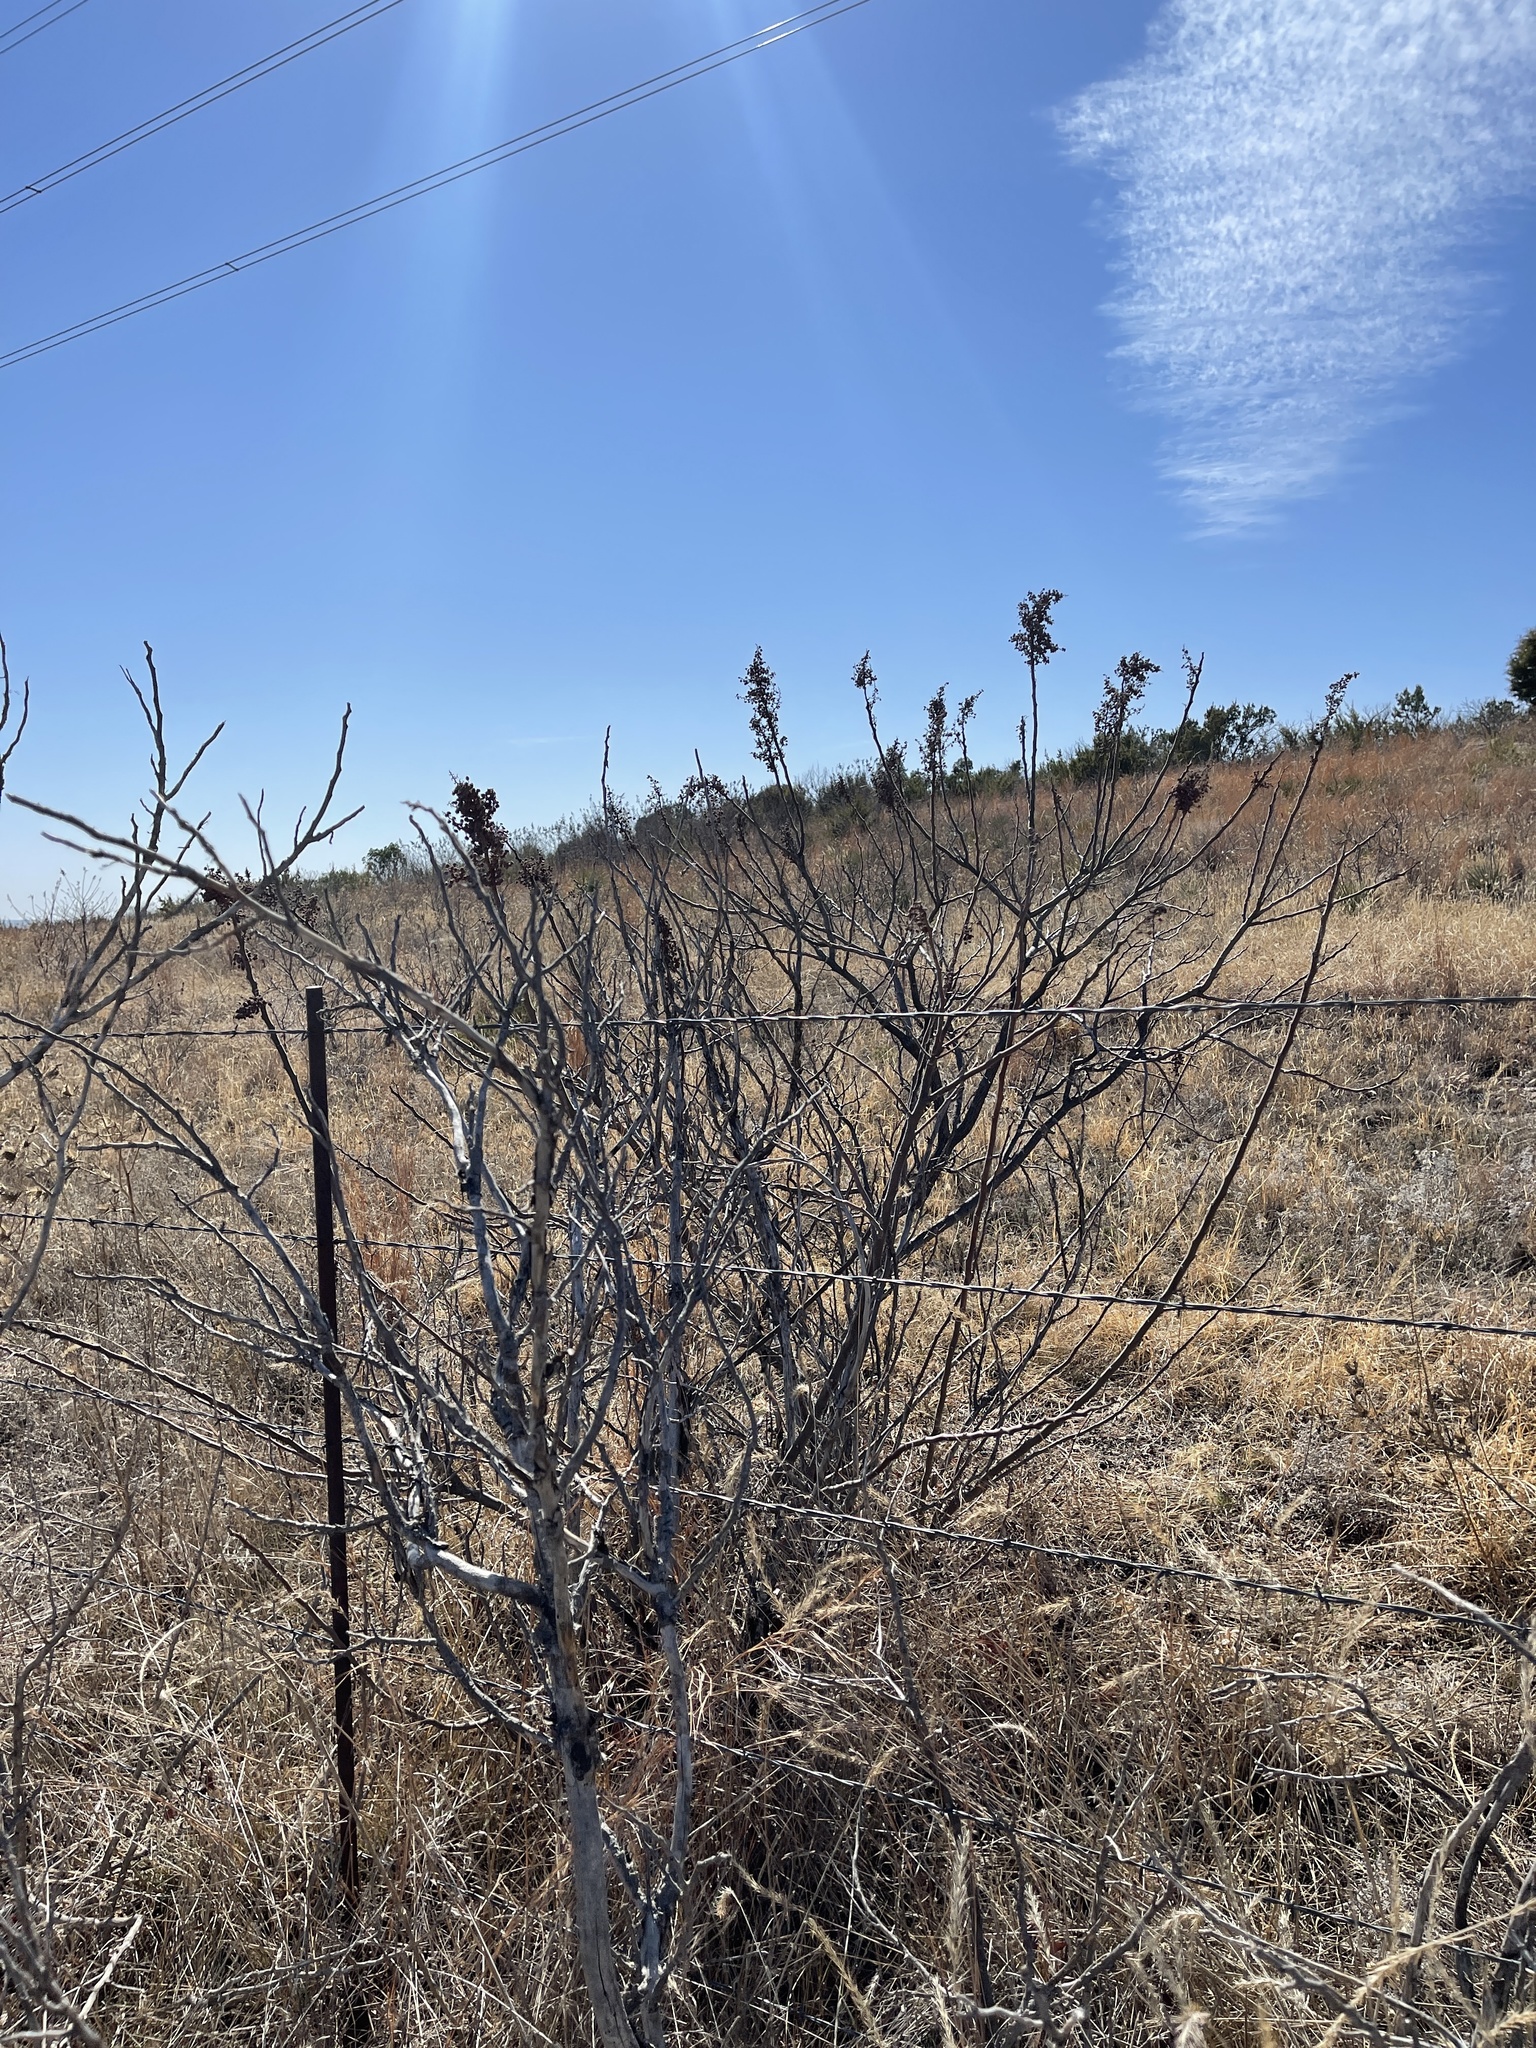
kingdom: Plantae
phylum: Tracheophyta
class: Magnoliopsida
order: Sapindales
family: Anacardiaceae
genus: Rhus
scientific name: Rhus lanceolata
